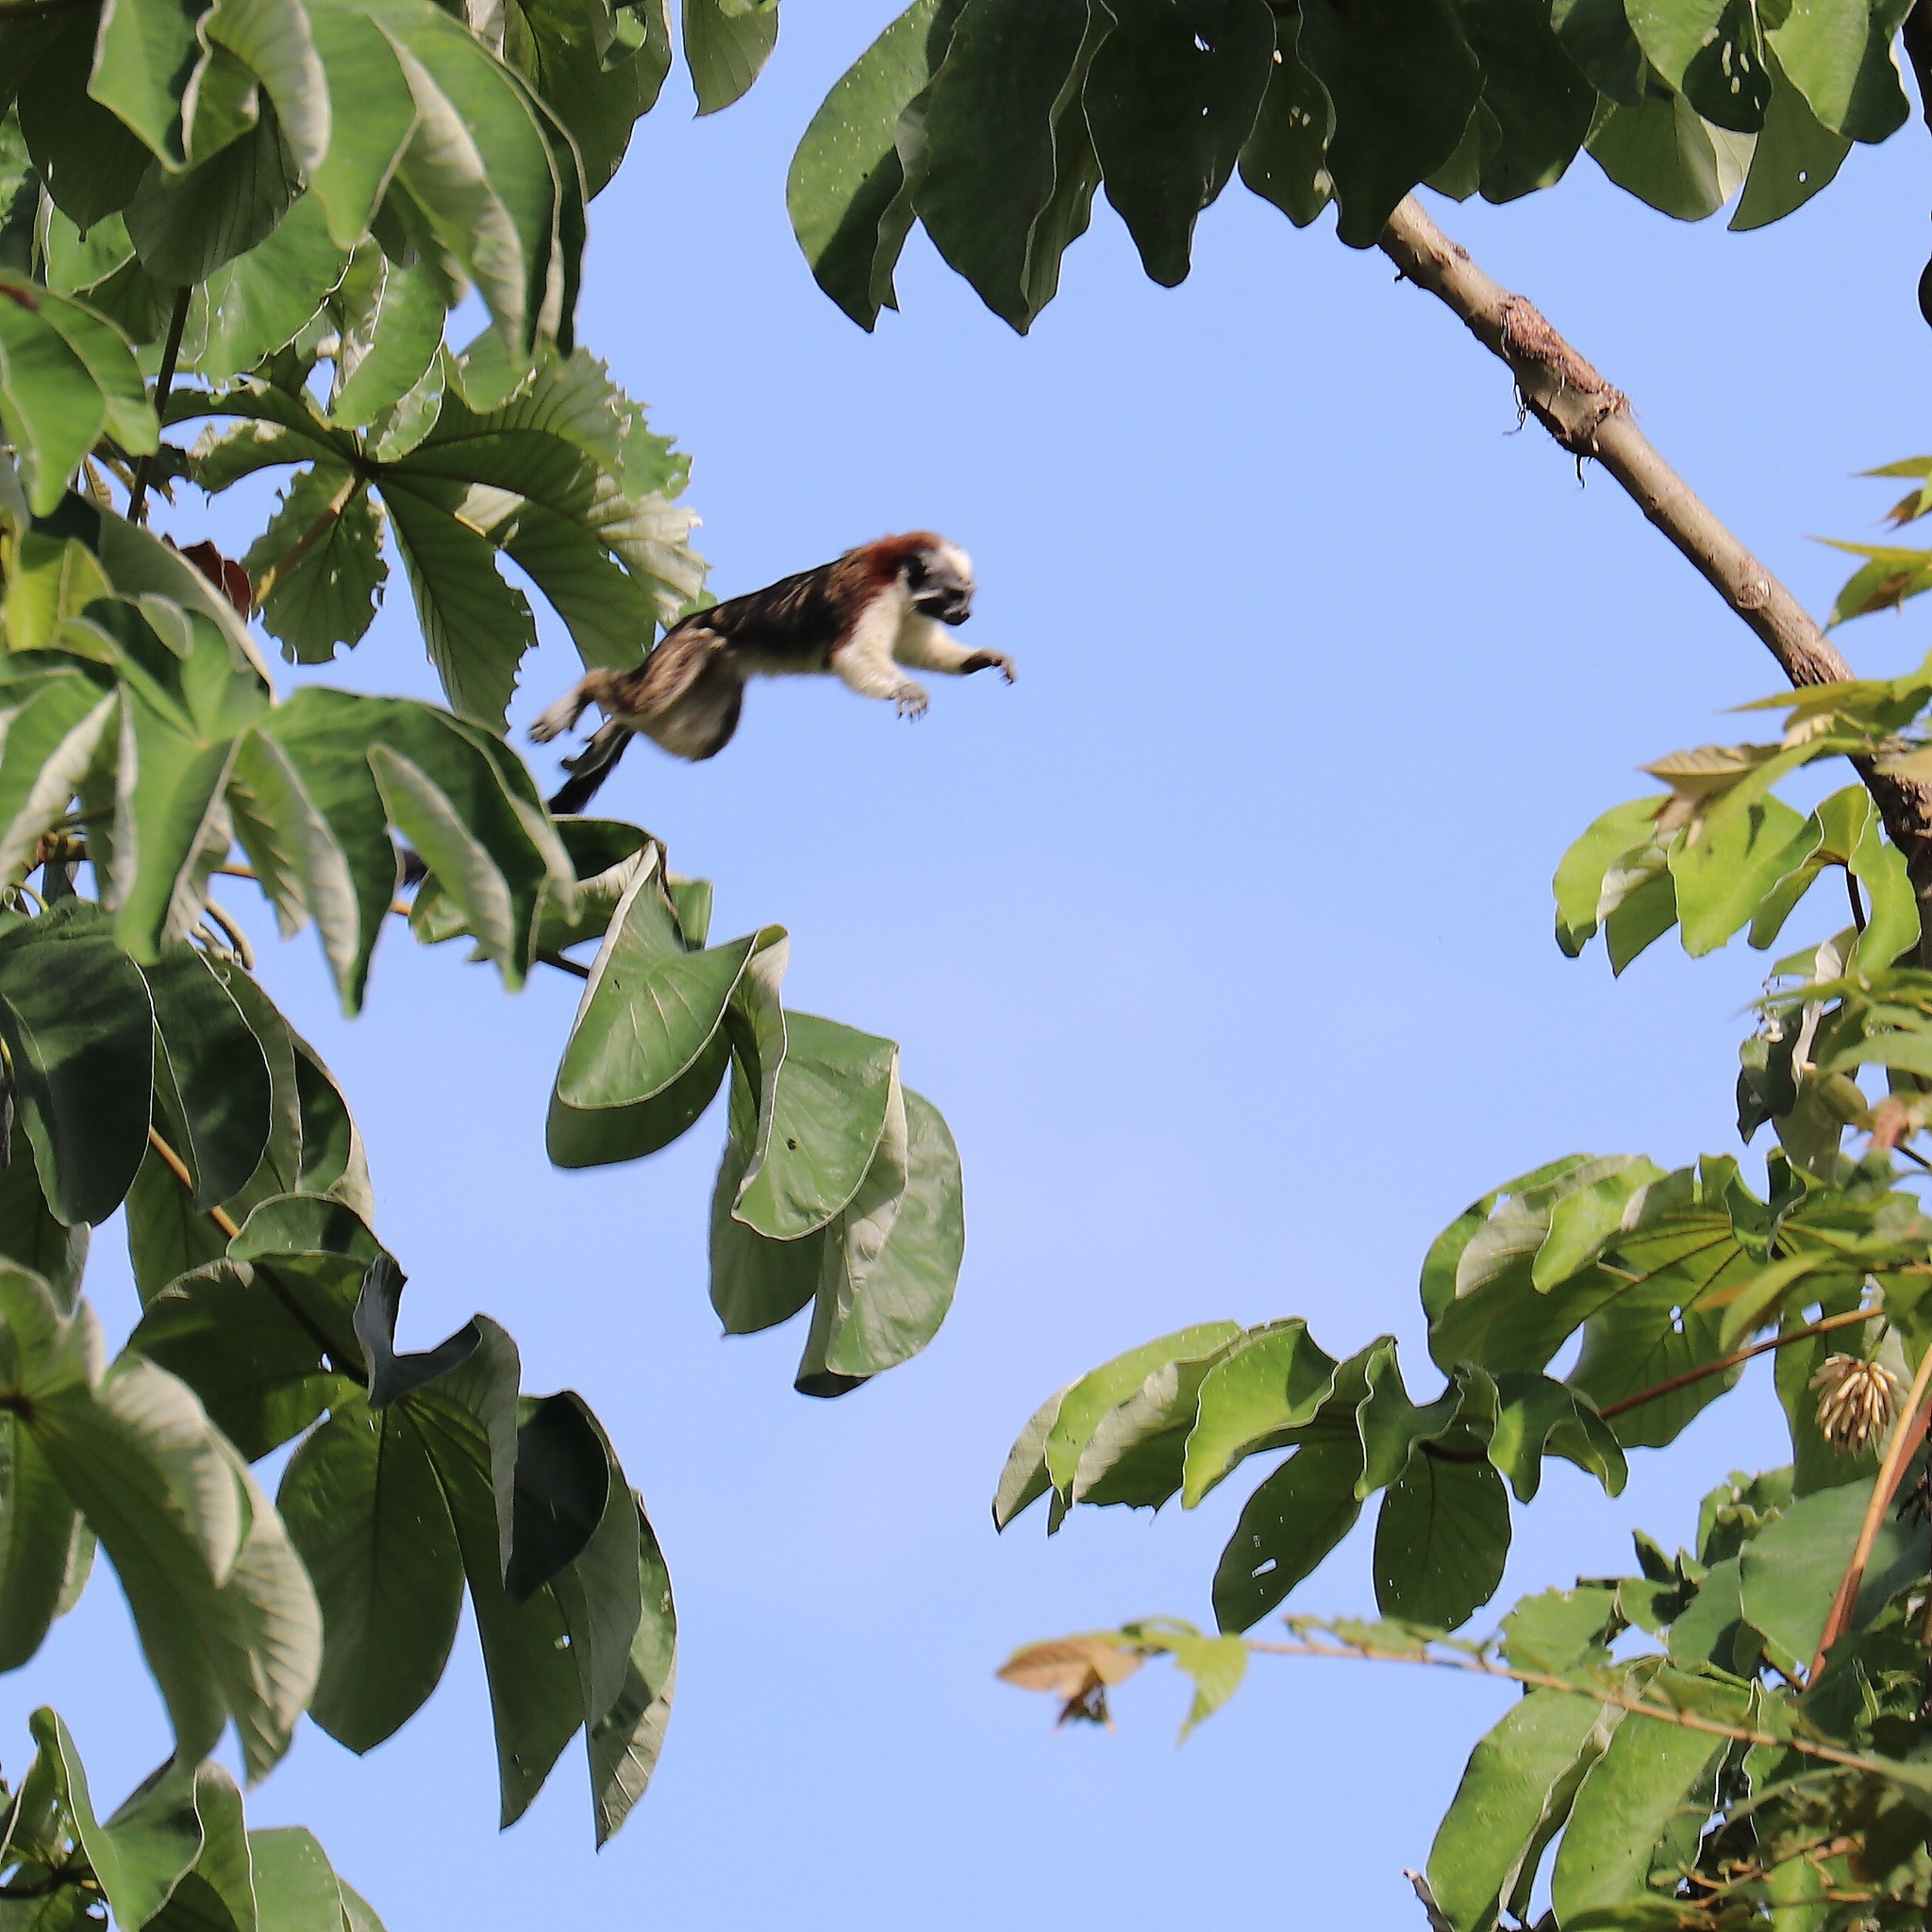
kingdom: Animalia
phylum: Chordata
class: Mammalia
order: Primates
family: Callitrichidae
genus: Saguinus
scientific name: Saguinus geoffroyi
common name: Geoffroy s tamarin
